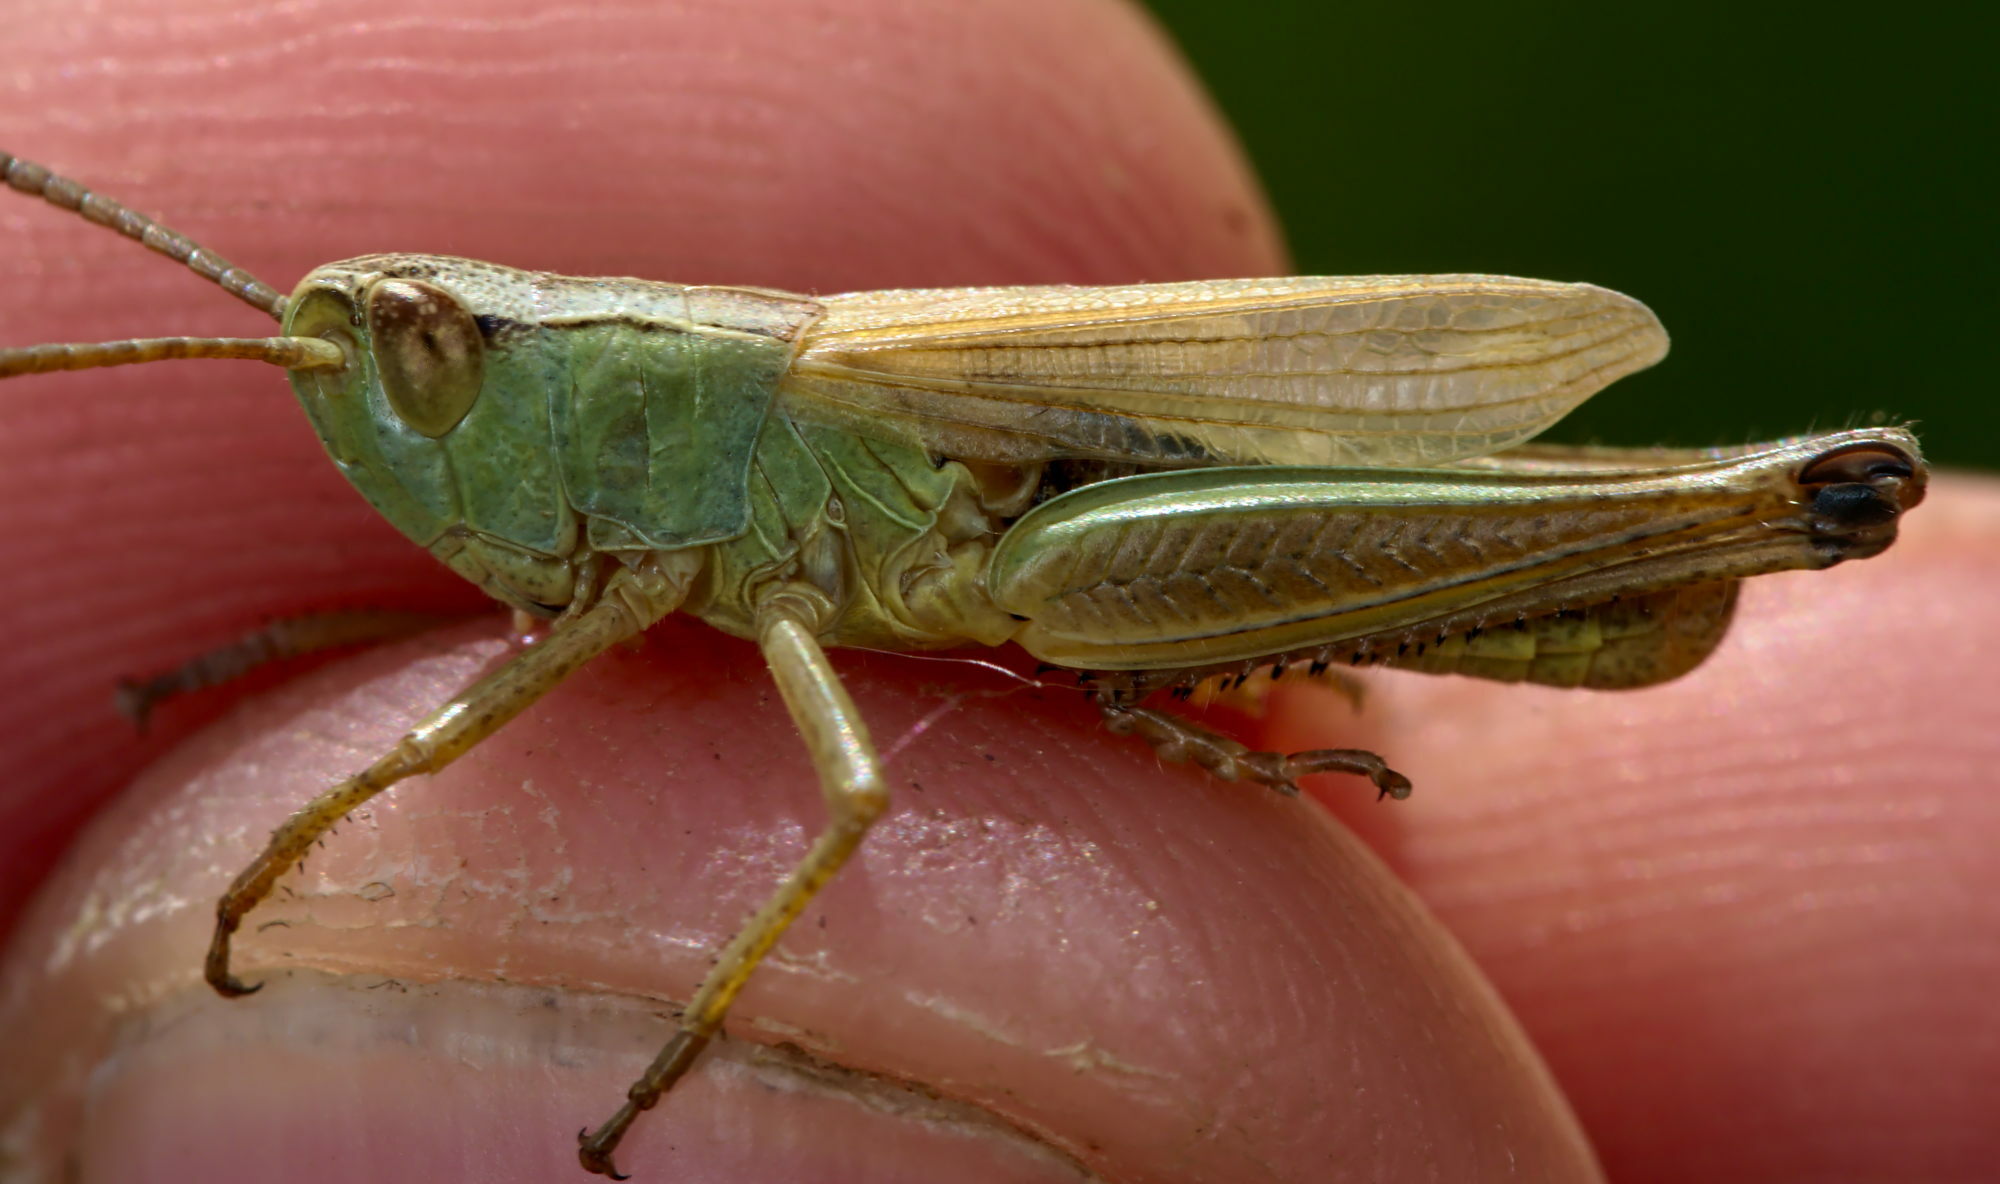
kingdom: Animalia
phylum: Arthropoda
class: Insecta
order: Orthoptera
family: Acrididae
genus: Pseudochorthippus
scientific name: Pseudochorthippus parallelus
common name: Meadow grasshopper
